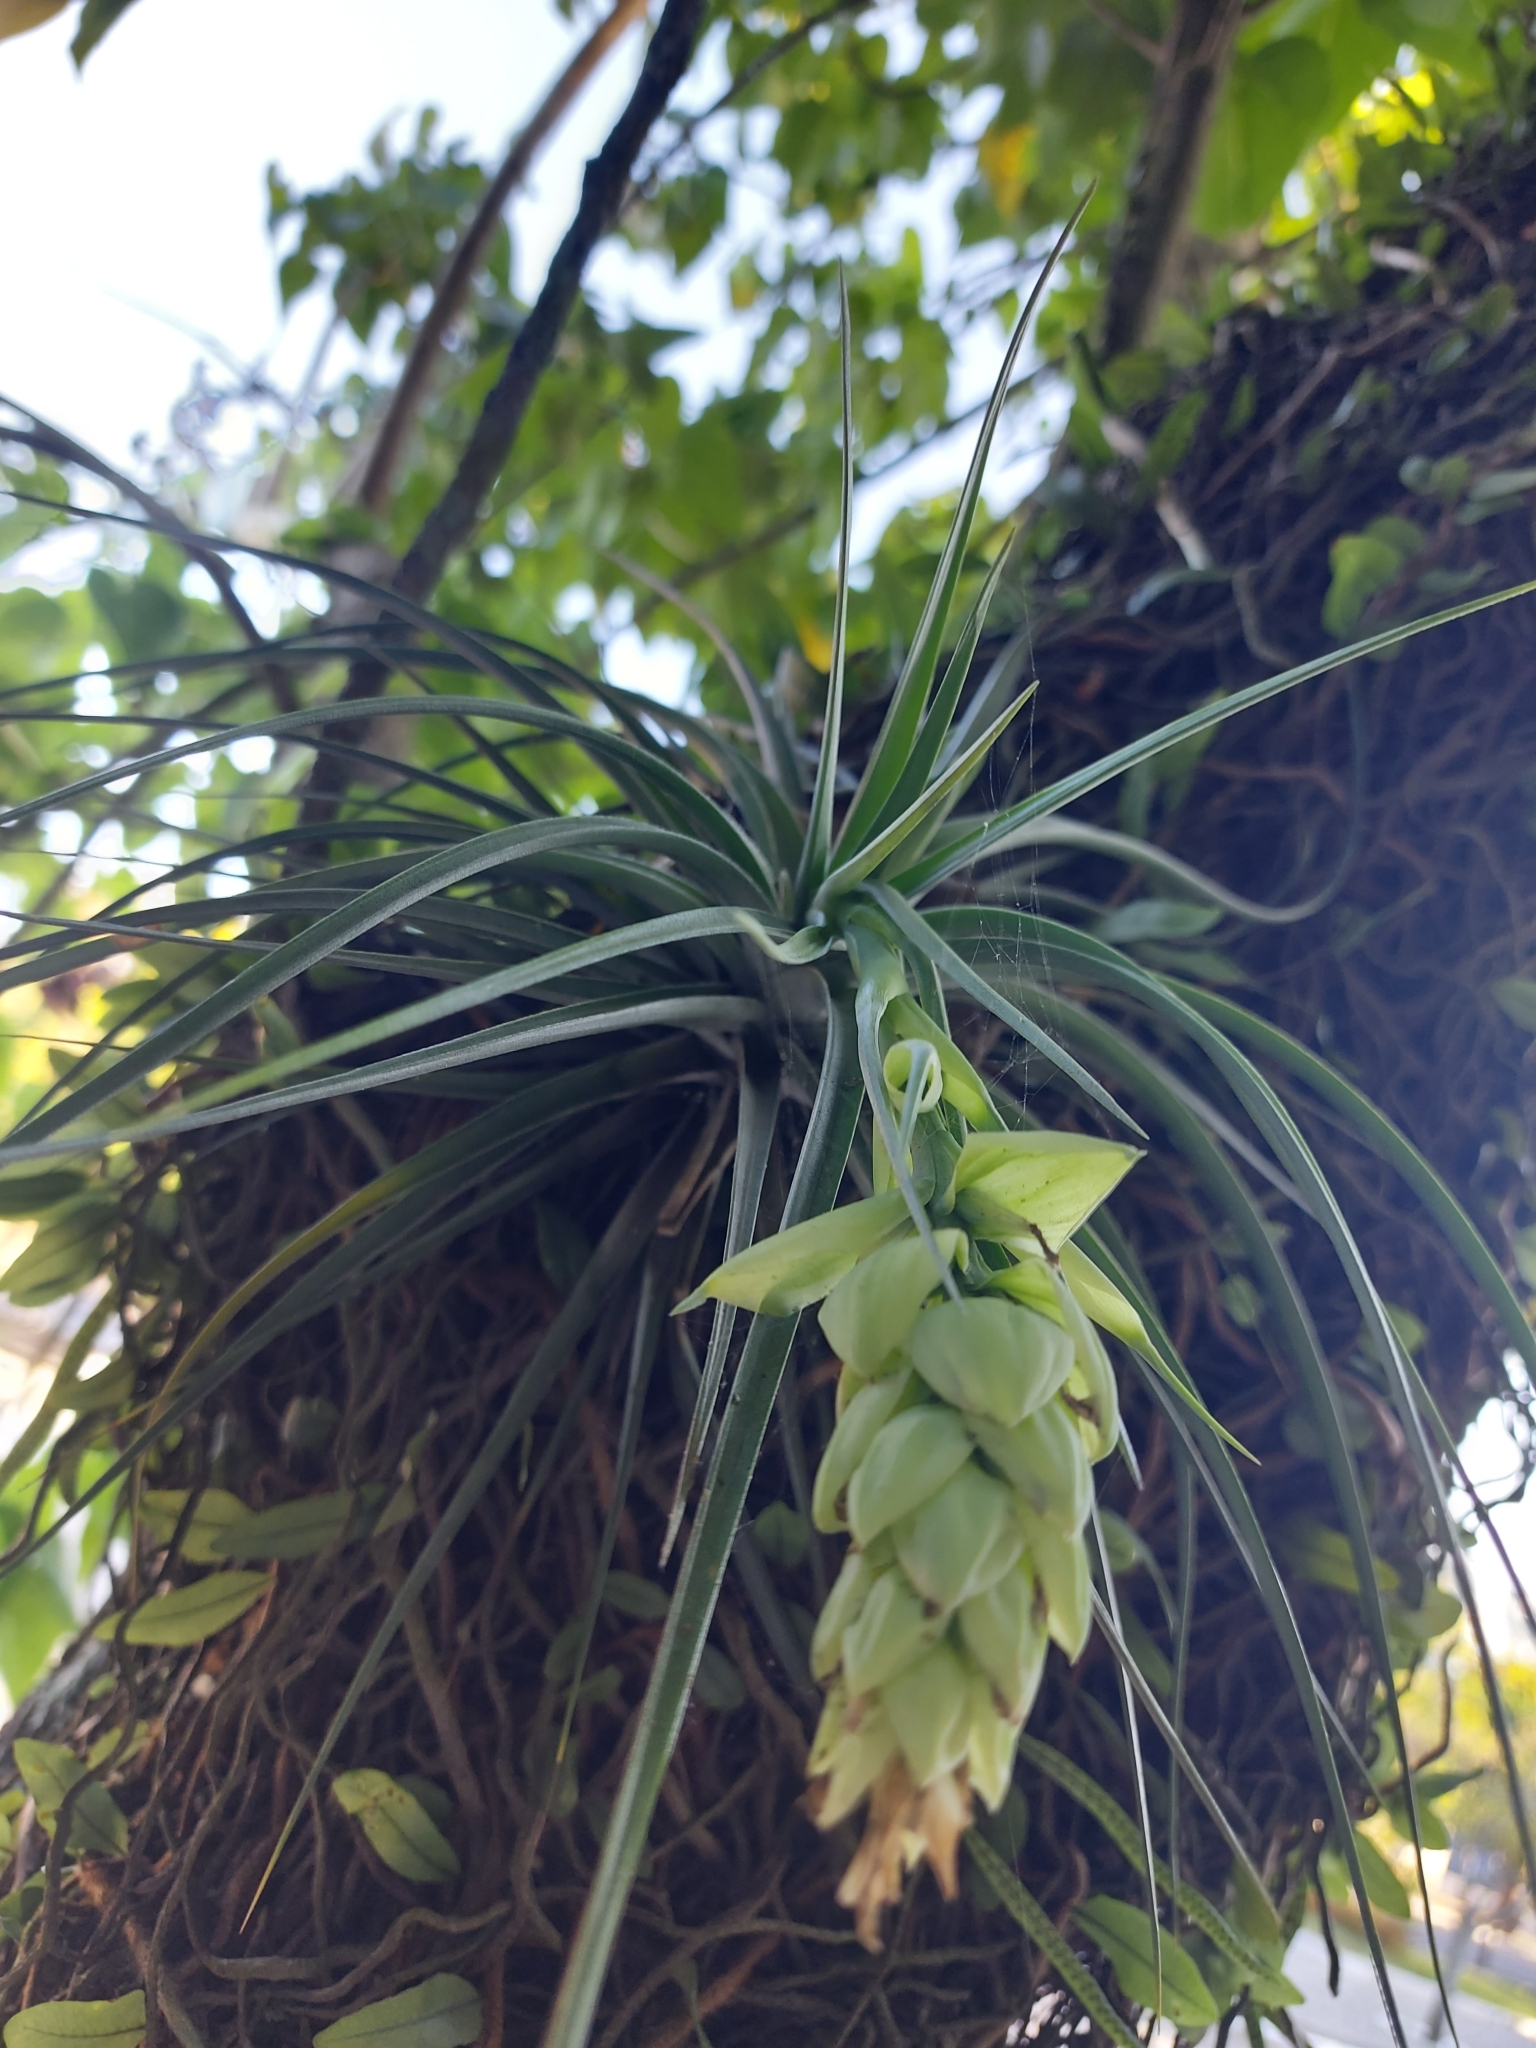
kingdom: Plantae
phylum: Tracheophyta
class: Liliopsida
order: Poales
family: Bromeliaceae
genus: Tillandsia
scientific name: Tillandsia stricta
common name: Airplant
